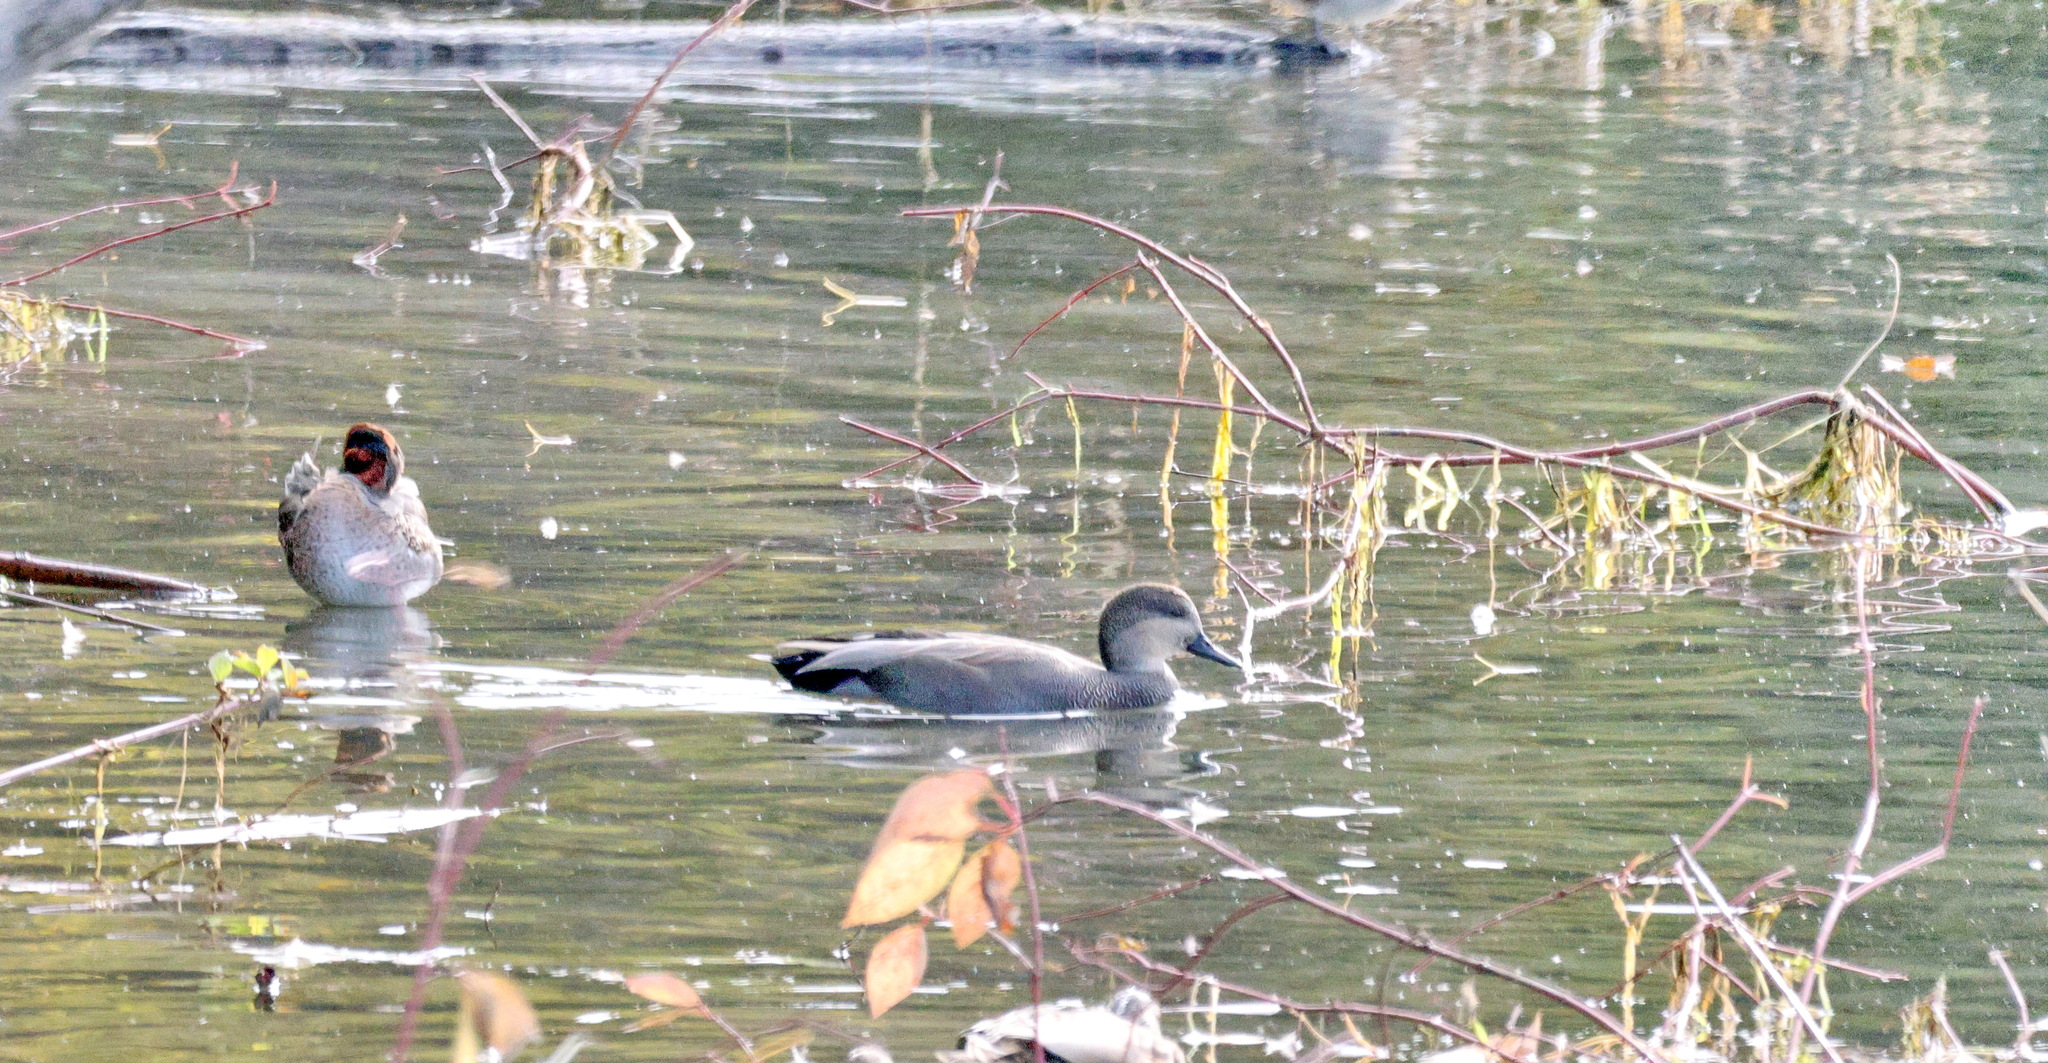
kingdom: Animalia
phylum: Chordata
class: Aves
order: Anseriformes
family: Anatidae
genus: Mareca
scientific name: Mareca strepera
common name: Gadwall
